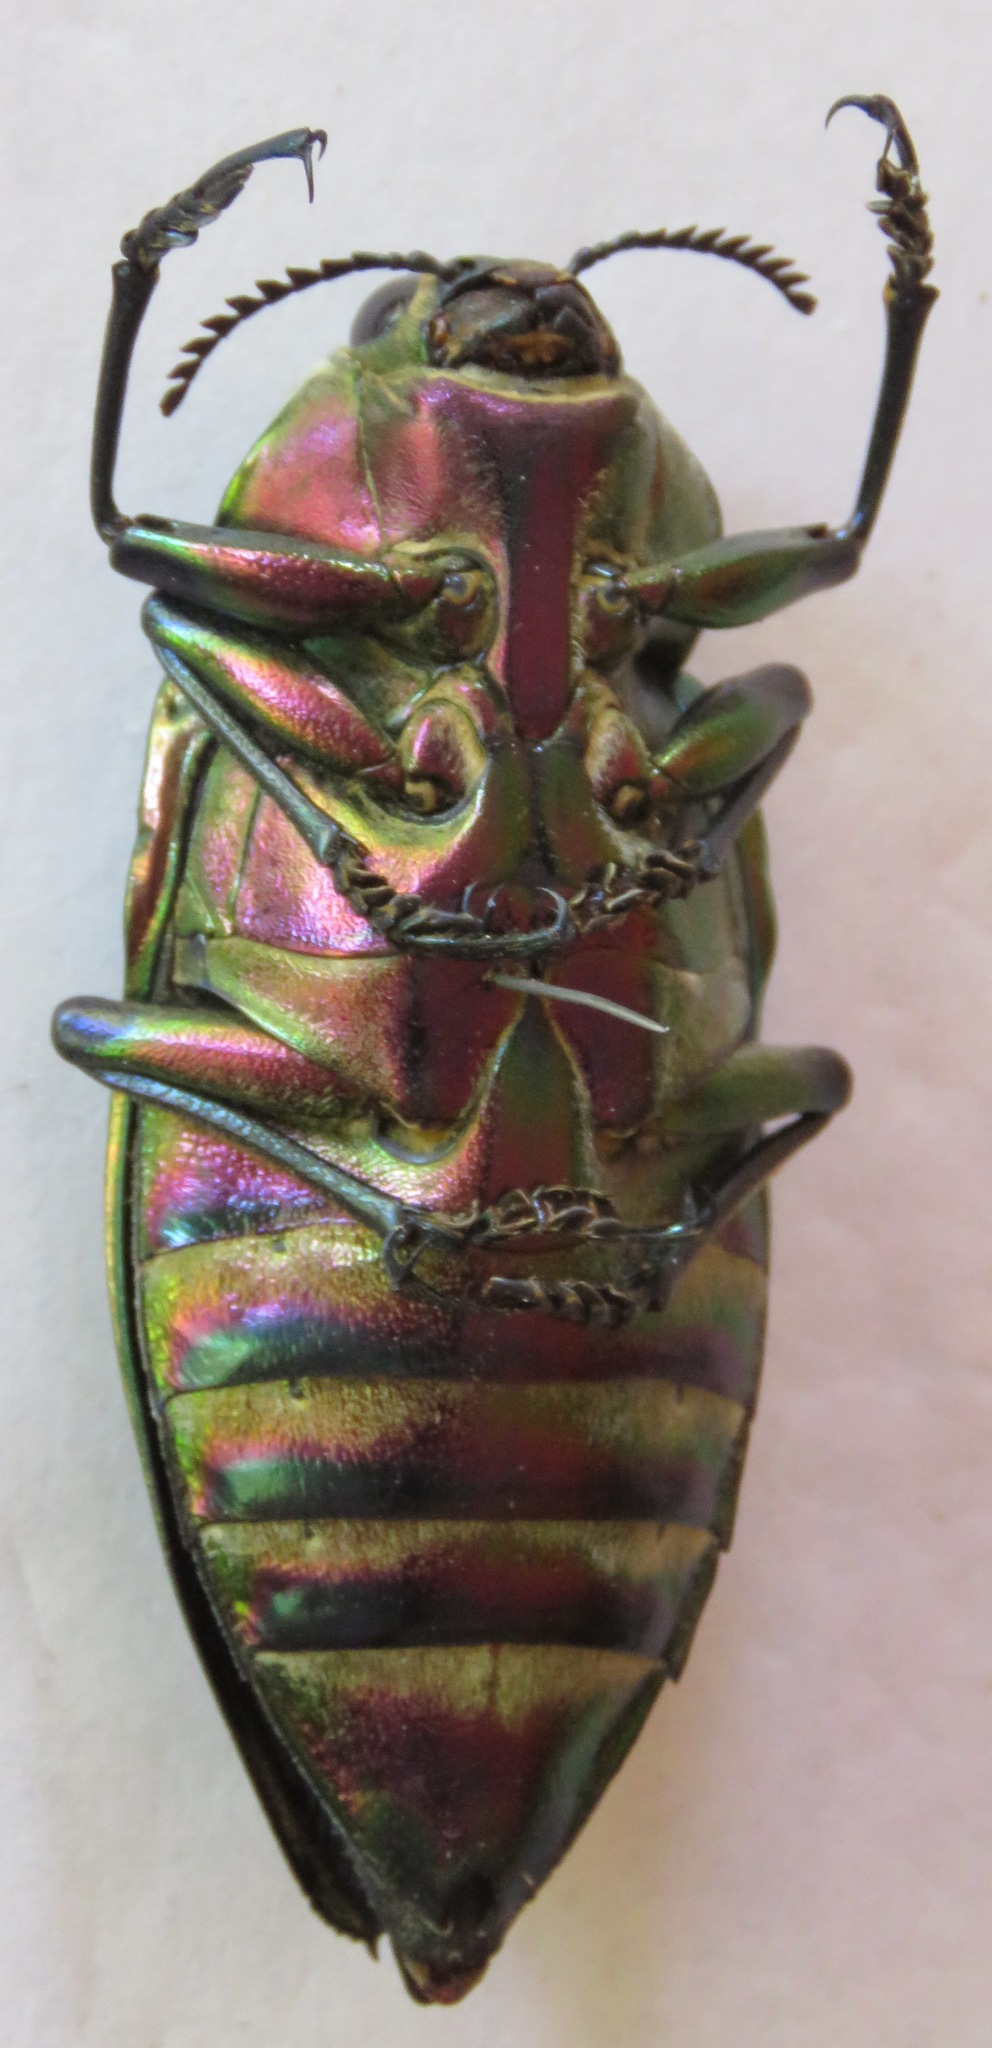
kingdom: Animalia
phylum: Arthropoda
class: Insecta
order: Coleoptera
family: Buprestidae
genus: Euchroma
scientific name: Euchroma giganteum
